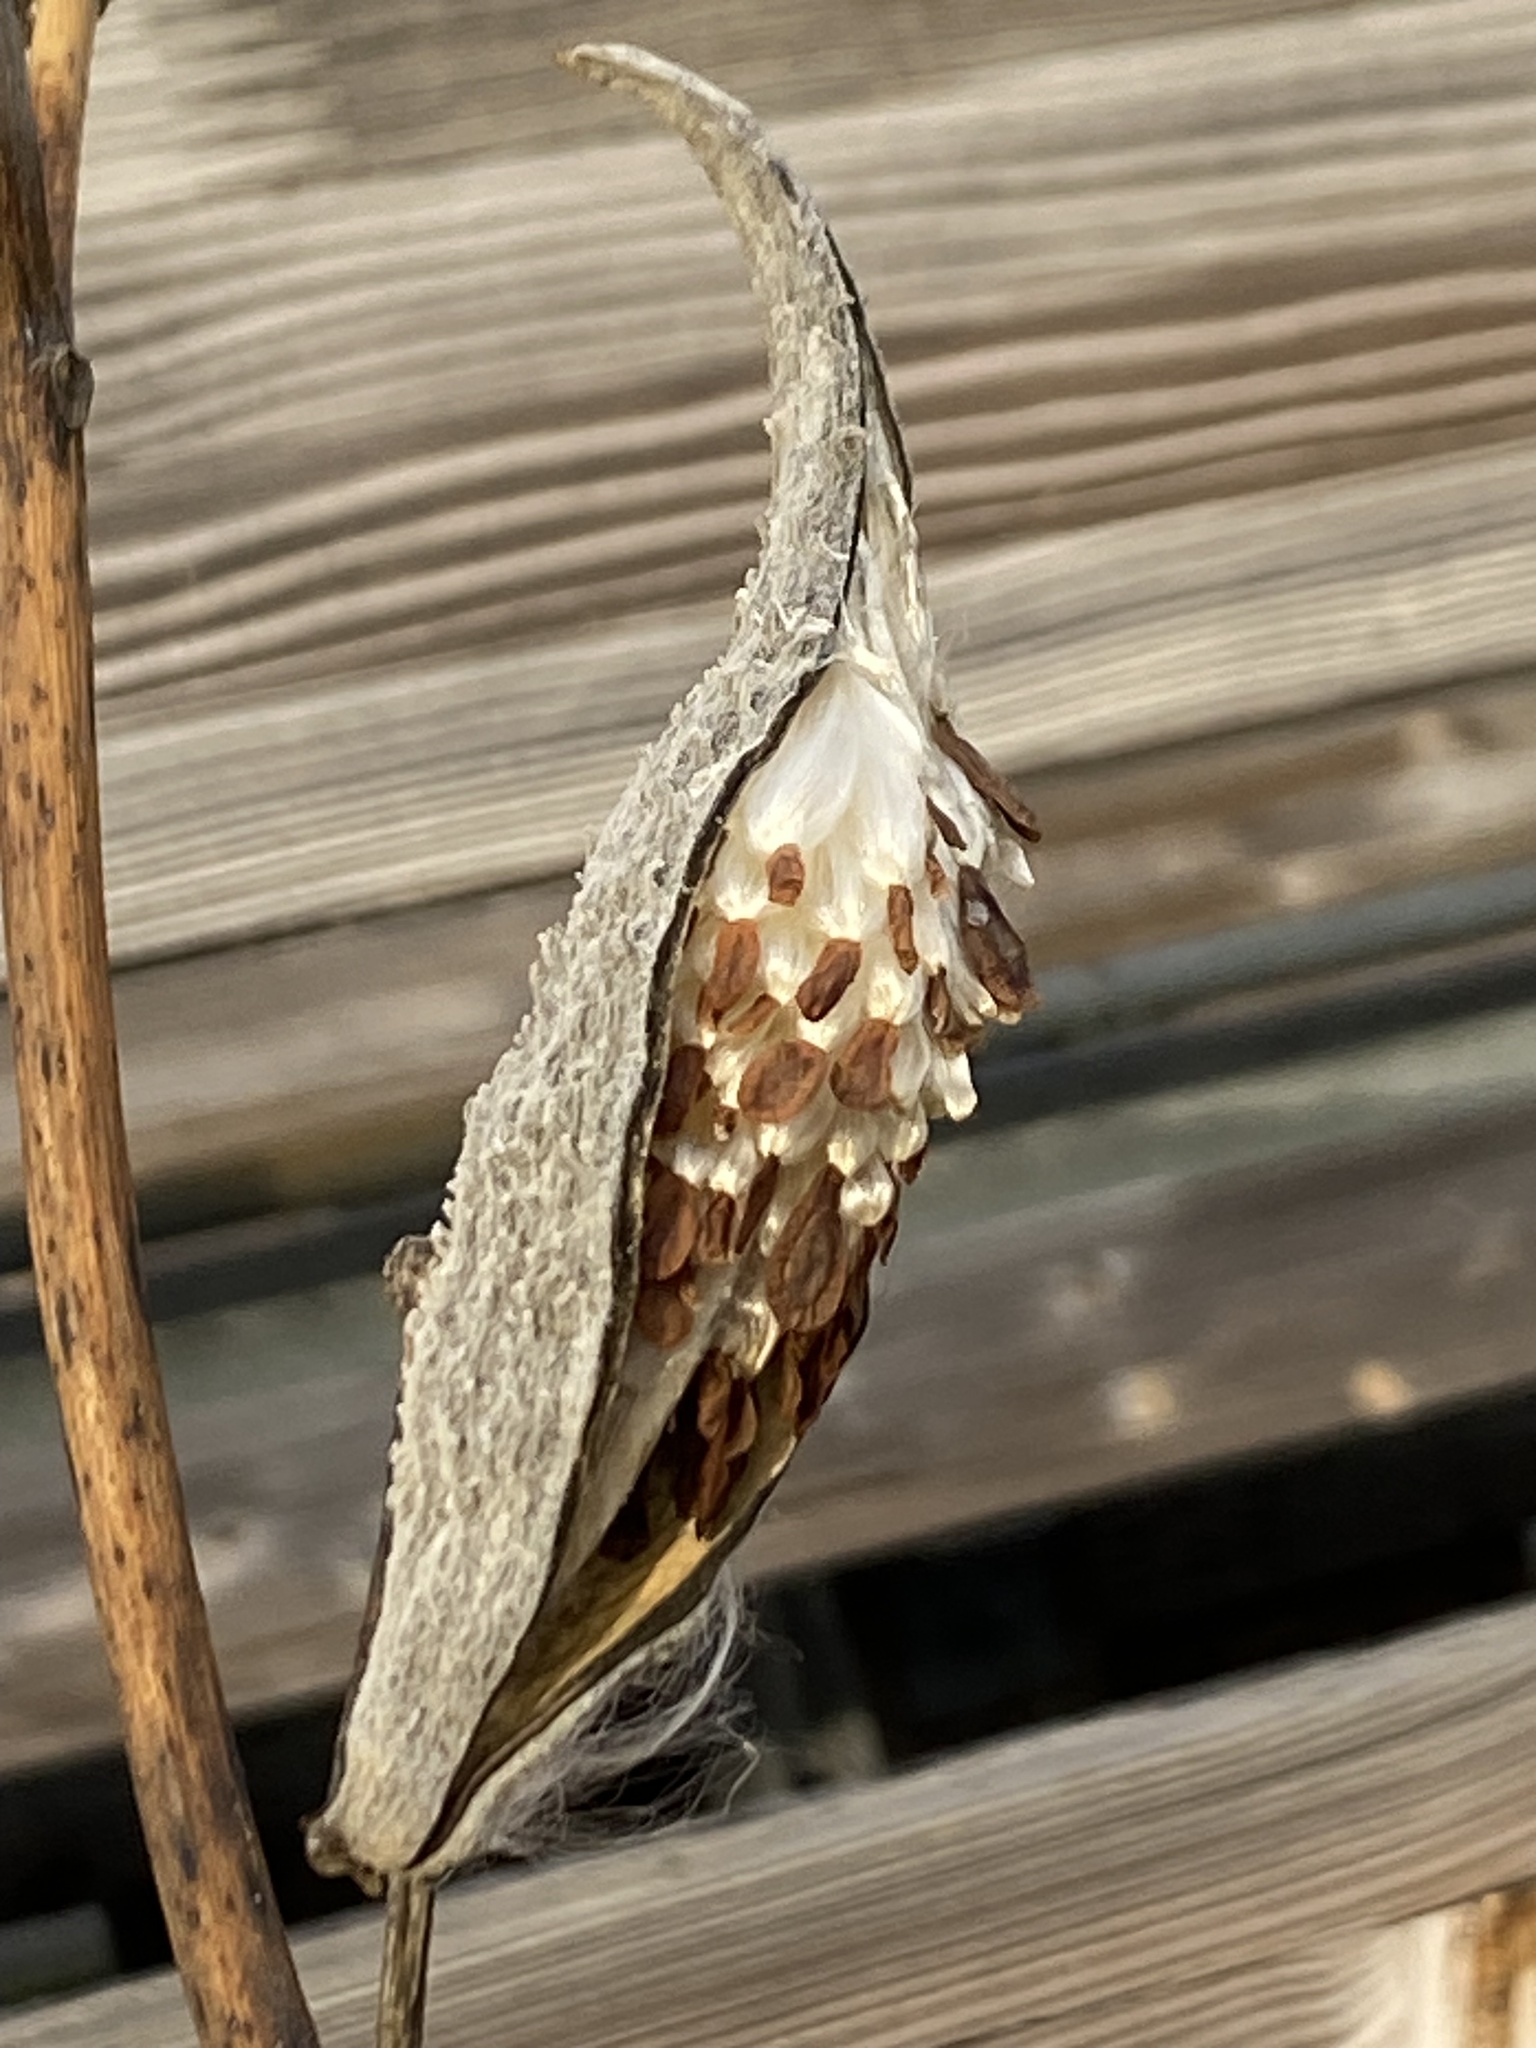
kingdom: Plantae
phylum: Tracheophyta
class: Magnoliopsida
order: Gentianales
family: Apocynaceae
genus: Asclepias
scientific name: Asclepias syriaca
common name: Common milkweed
